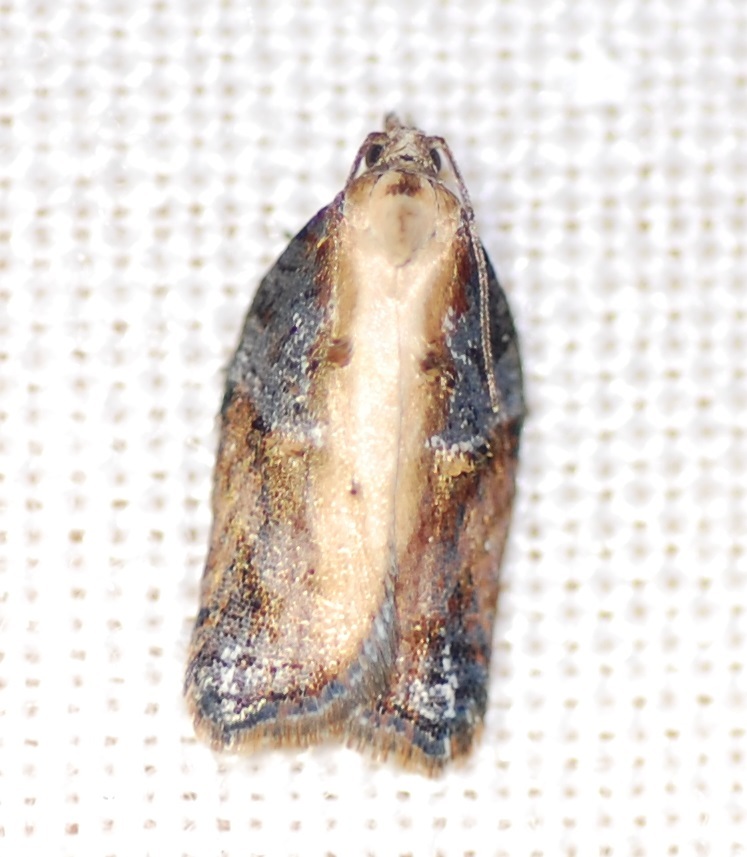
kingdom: Animalia
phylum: Arthropoda
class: Insecta
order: Lepidoptera
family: Tortricidae
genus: Acleris
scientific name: Acleris hastiana
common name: Sallow button
